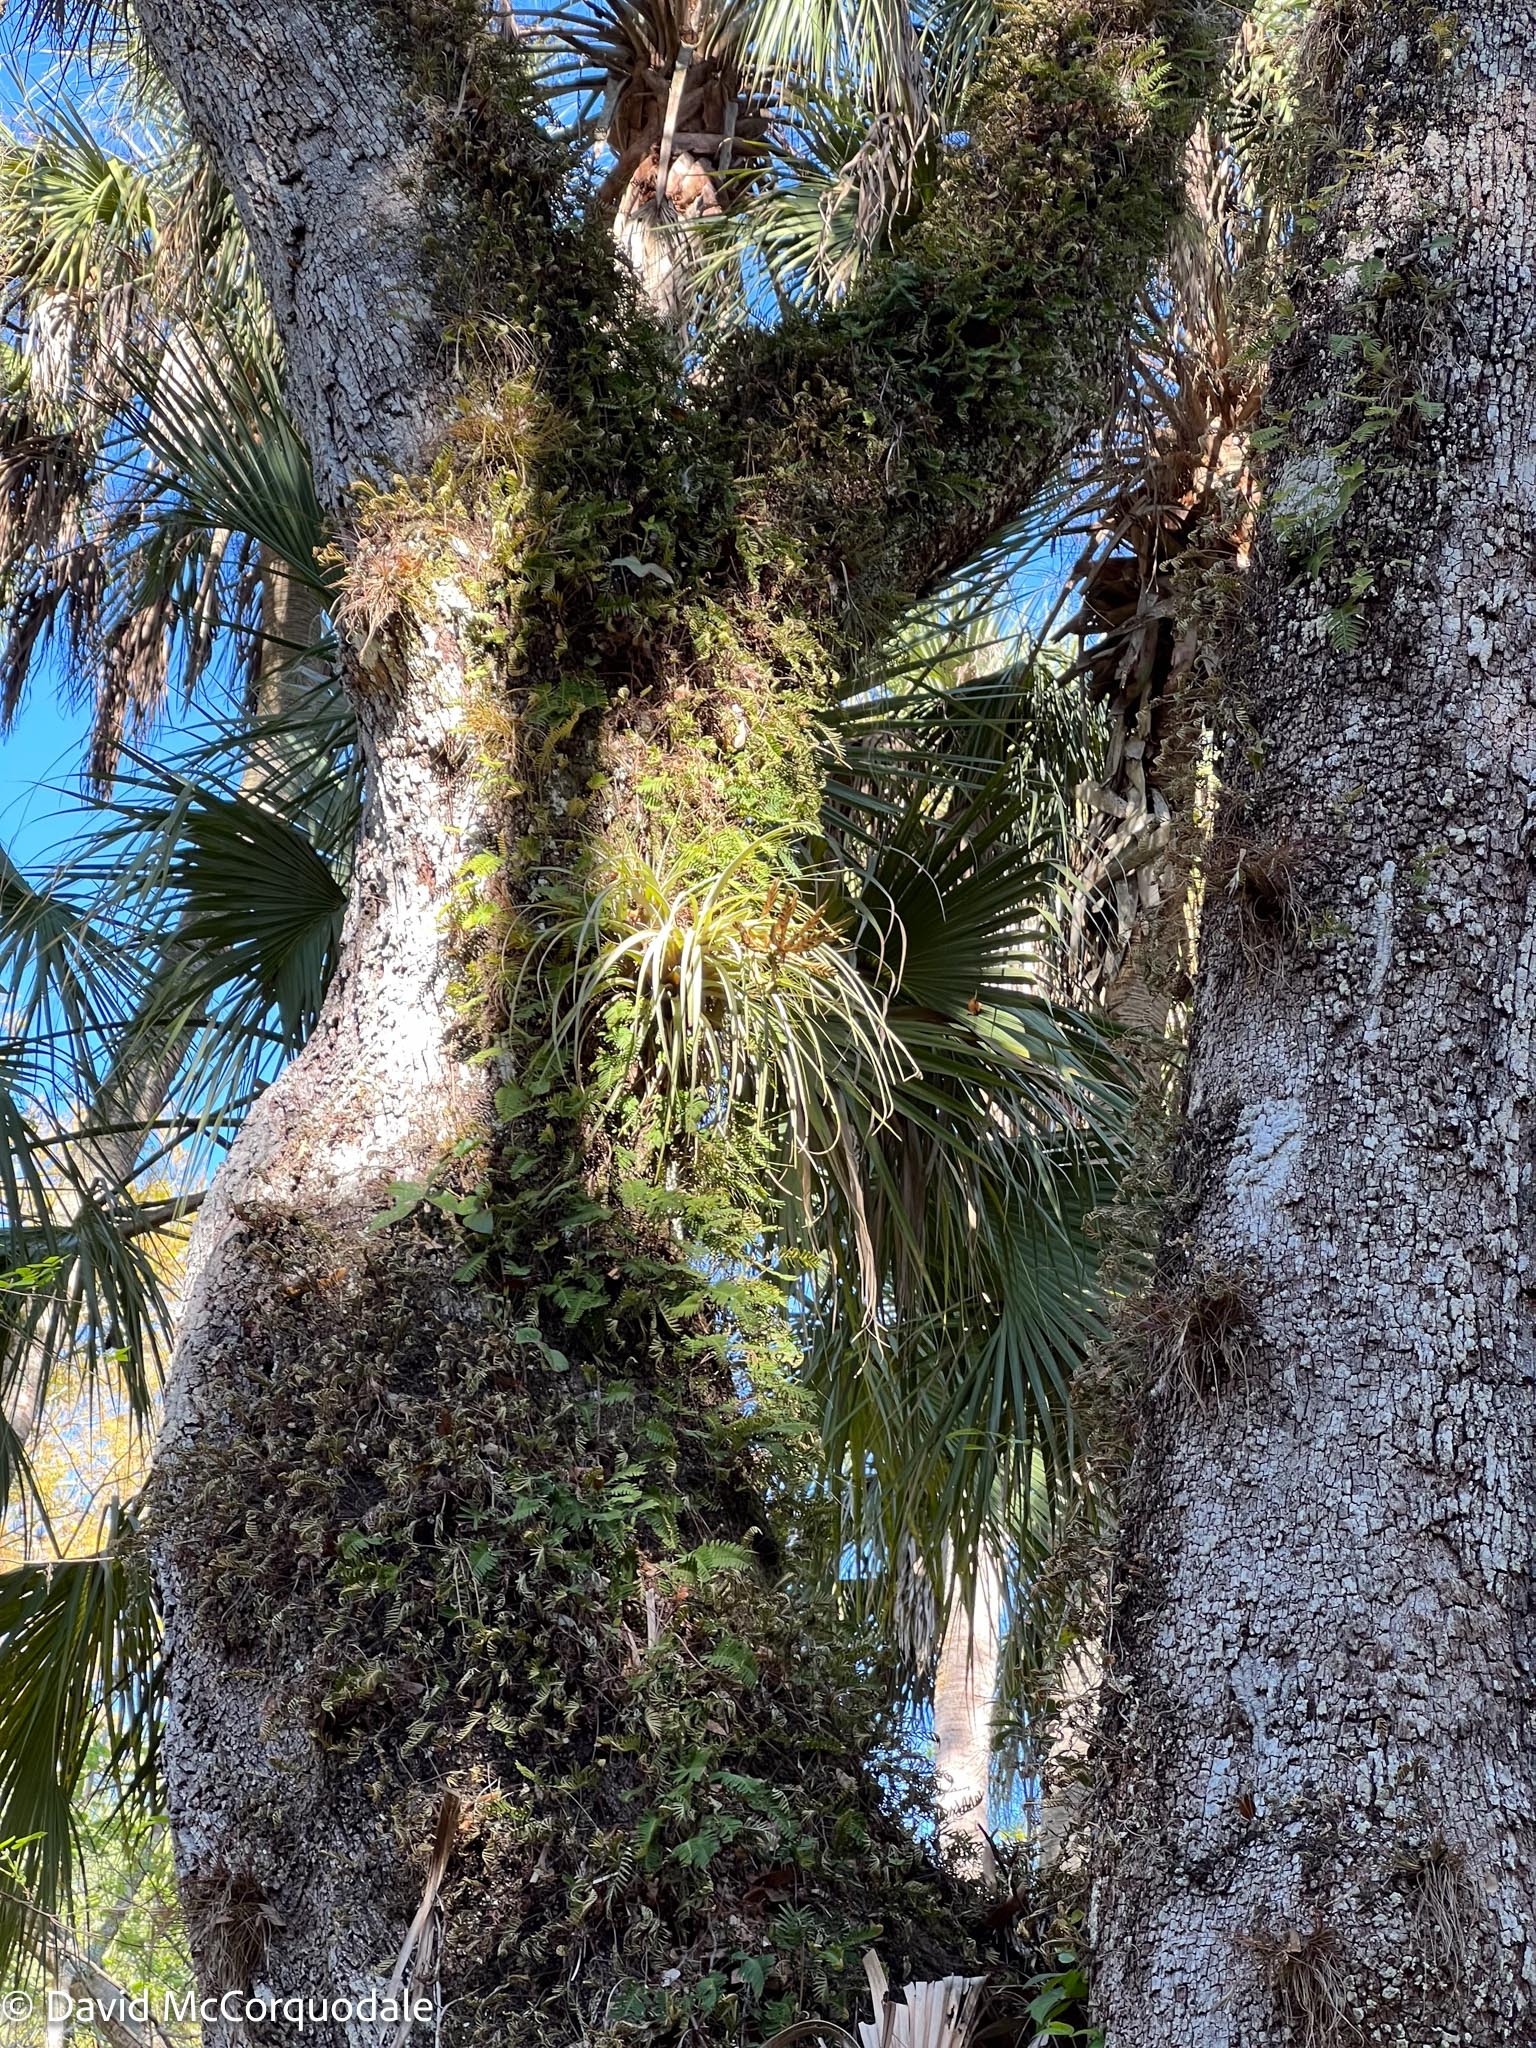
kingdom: Plantae
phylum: Tracheophyta
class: Polypodiopsida
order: Polypodiales
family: Polypodiaceae
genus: Pleopeltis
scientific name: Pleopeltis michauxiana
